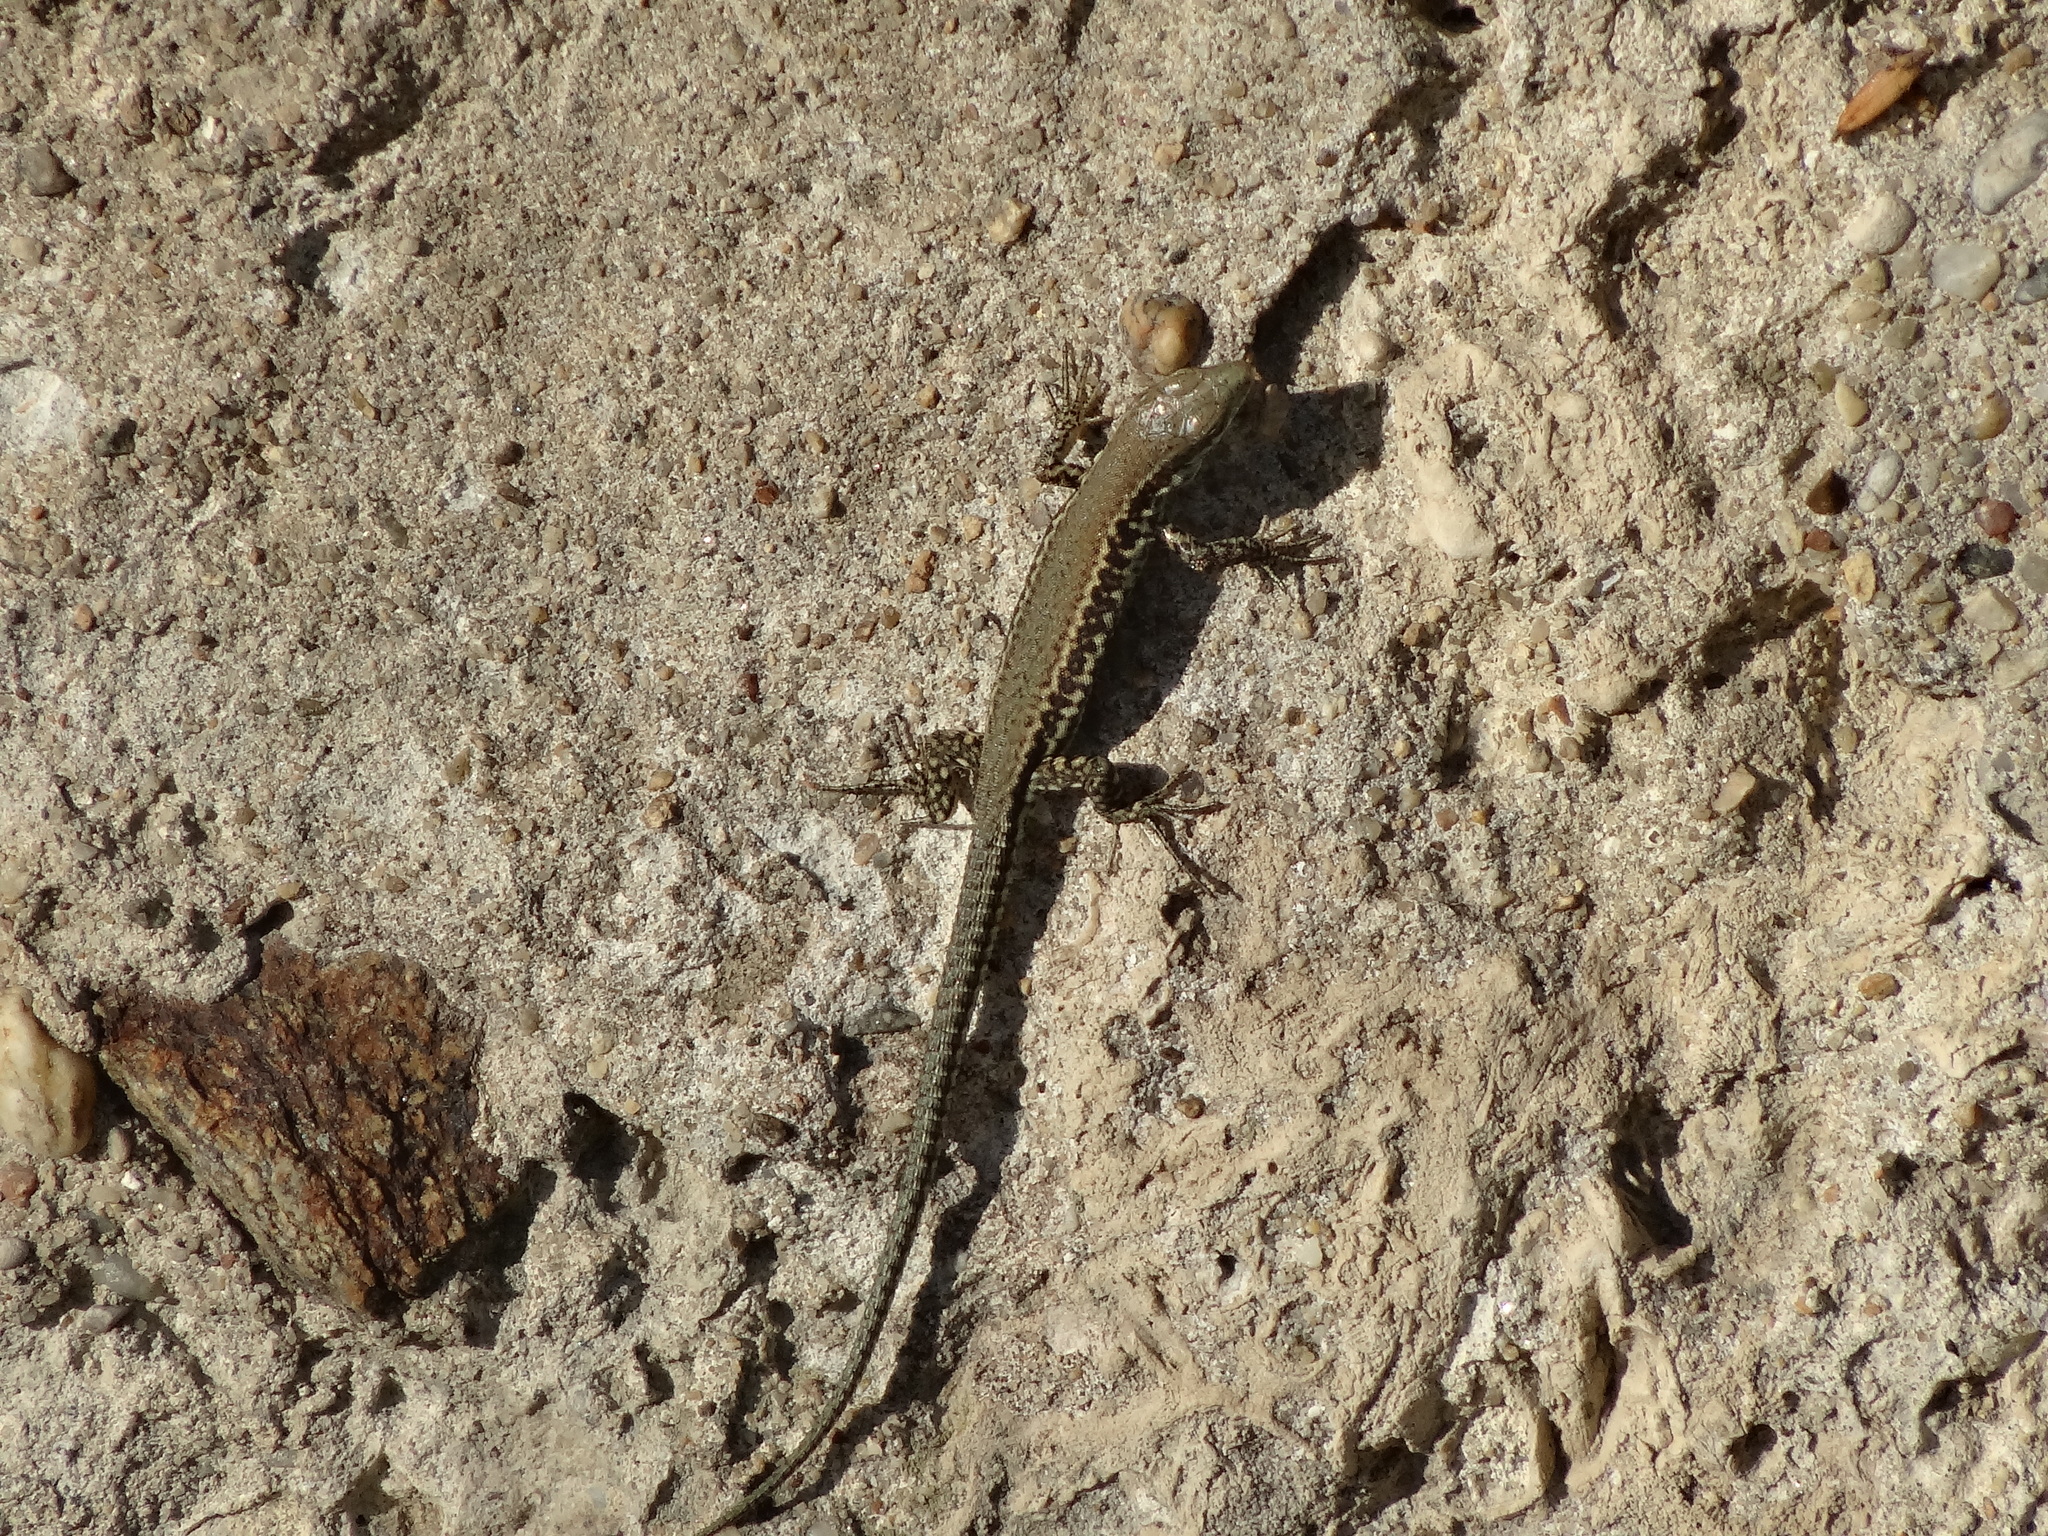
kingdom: Animalia
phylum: Chordata
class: Squamata
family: Lacertidae
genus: Podarcis
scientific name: Podarcis muralis
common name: Common wall lizard
